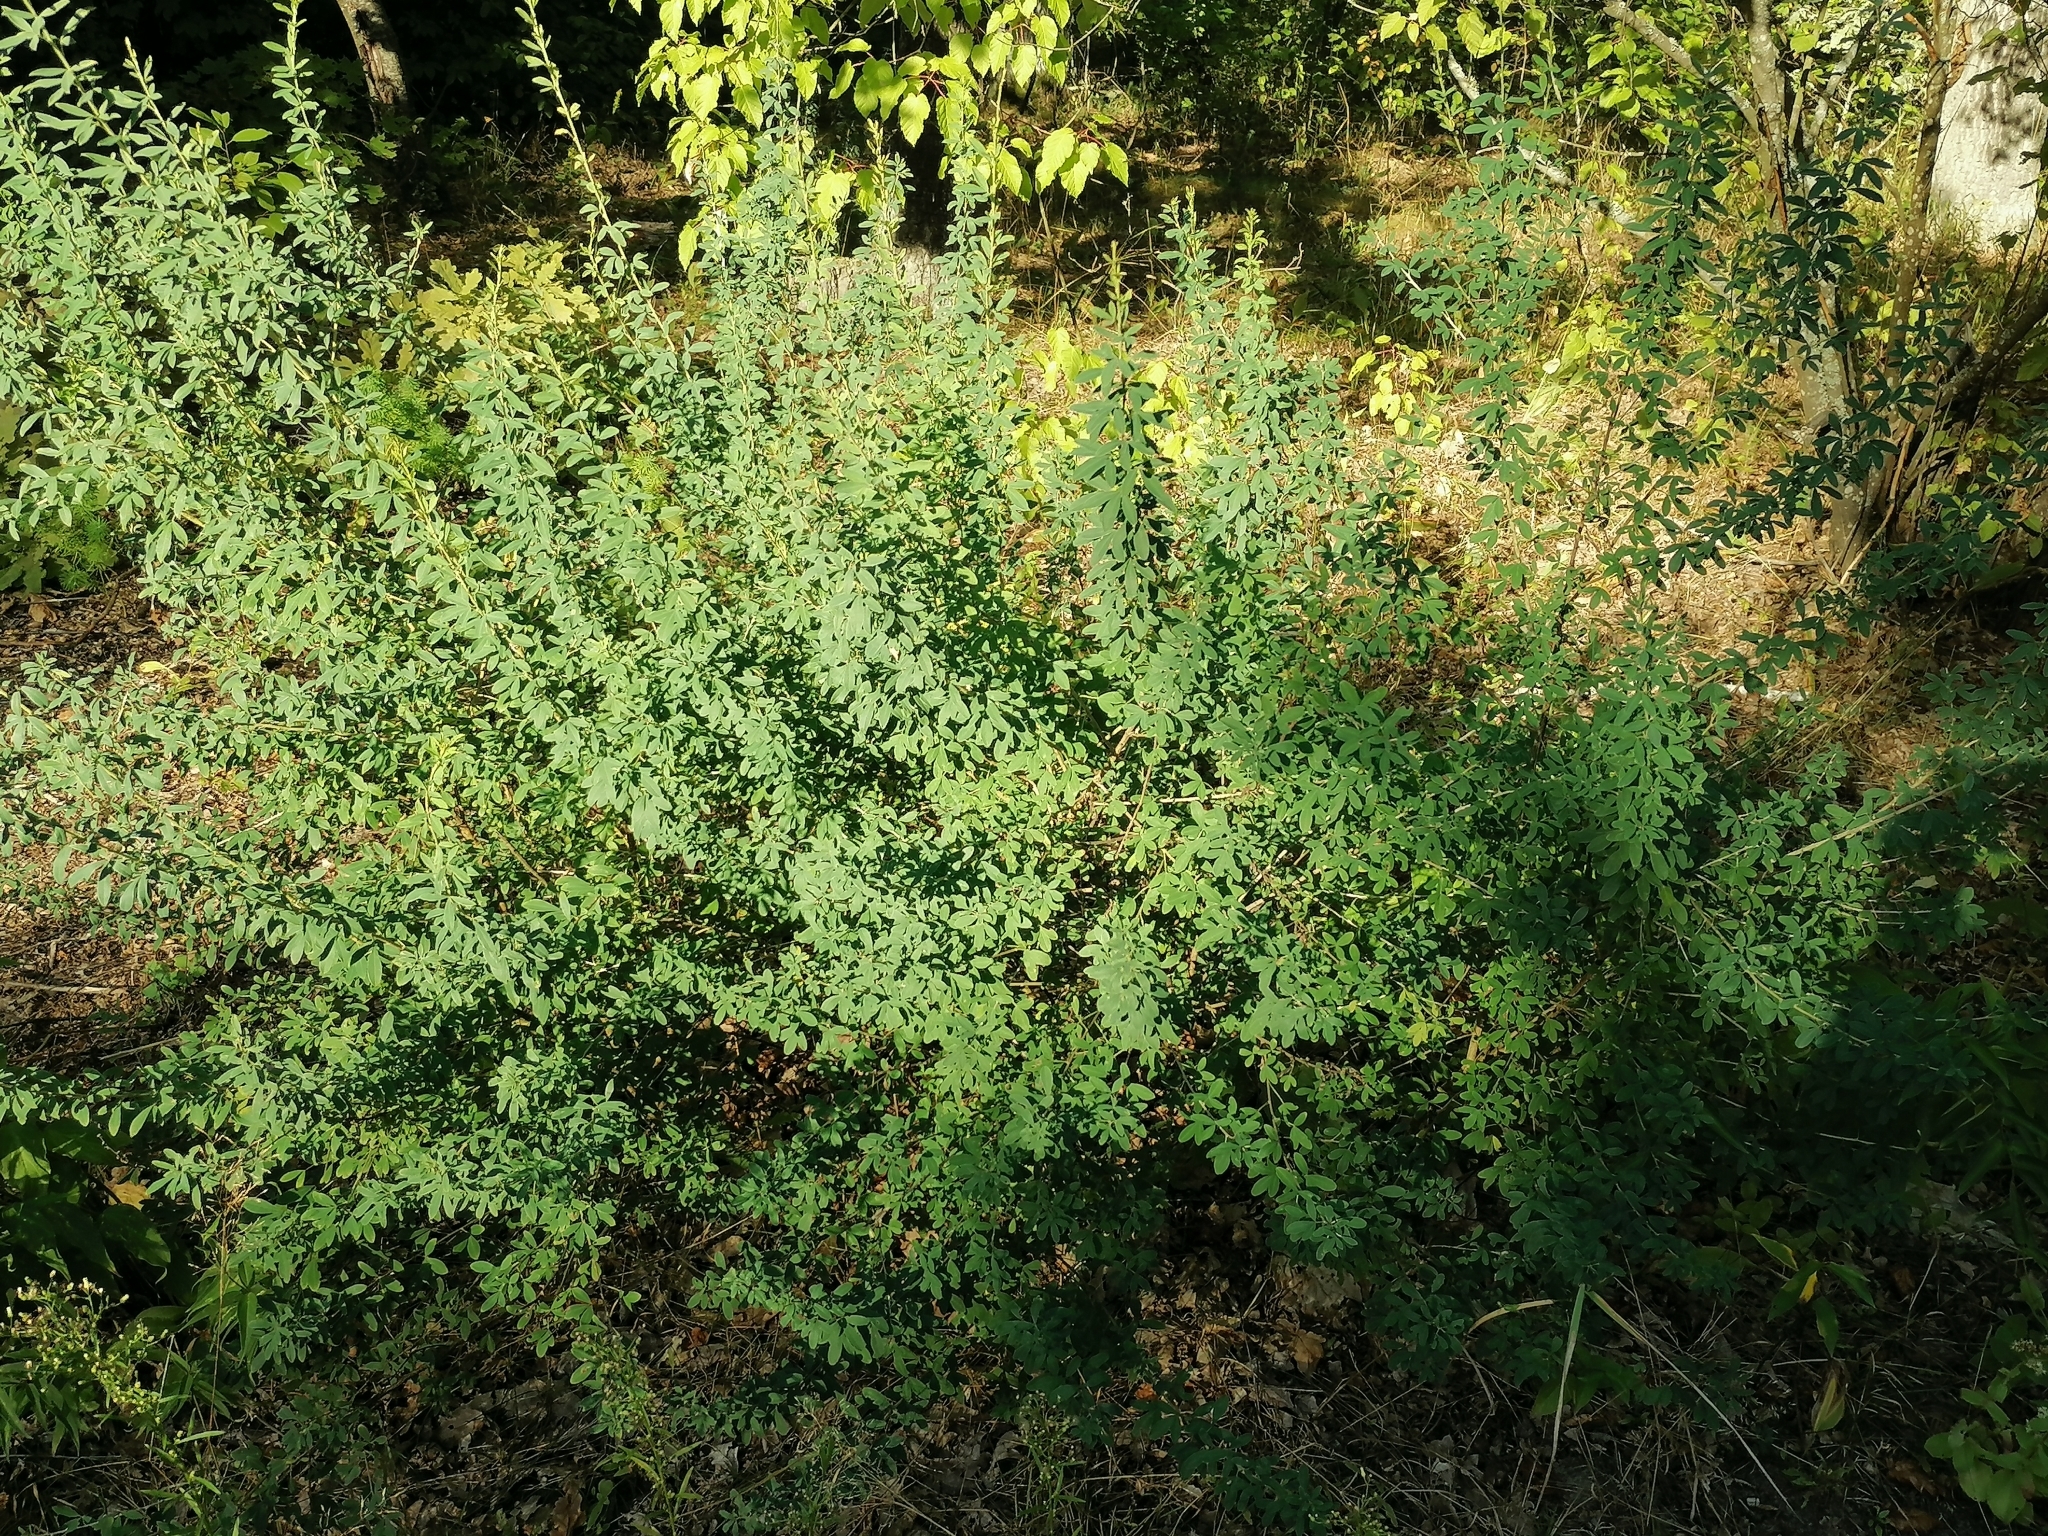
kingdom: Plantae
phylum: Tracheophyta
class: Magnoliopsida
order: Fabales
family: Fabaceae
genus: Chamaecytisus
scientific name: Chamaecytisus ruthenicus
